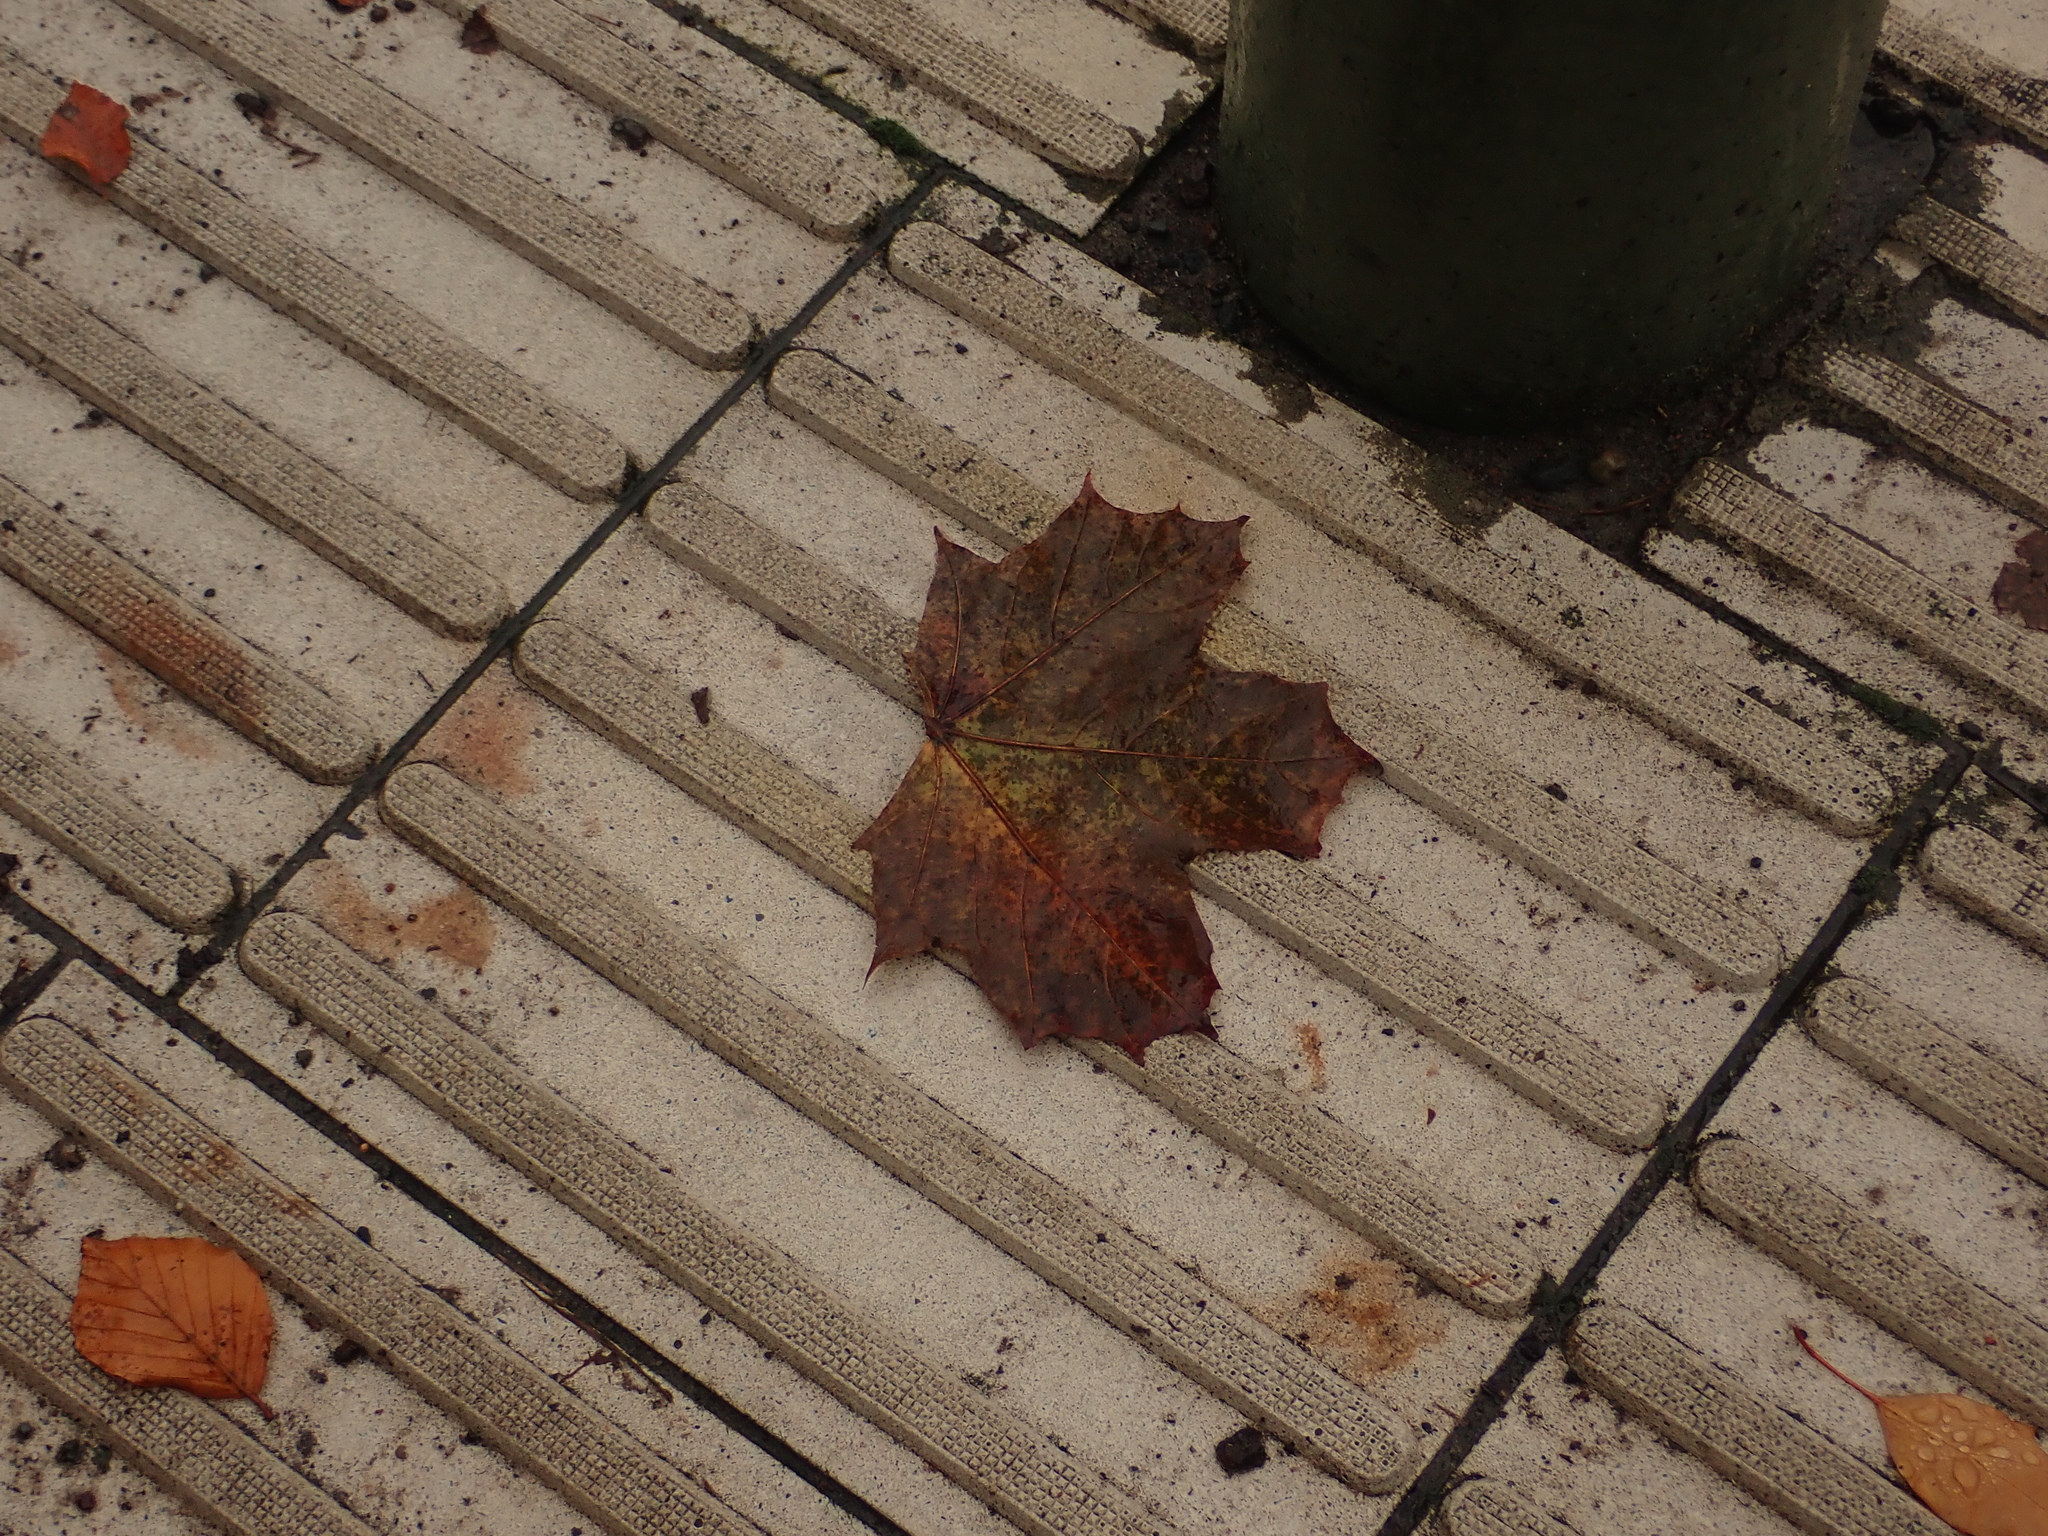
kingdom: Plantae
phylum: Tracheophyta
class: Magnoliopsida
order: Sapindales
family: Sapindaceae
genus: Acer
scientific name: Acer platanoides
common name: Norway maple
